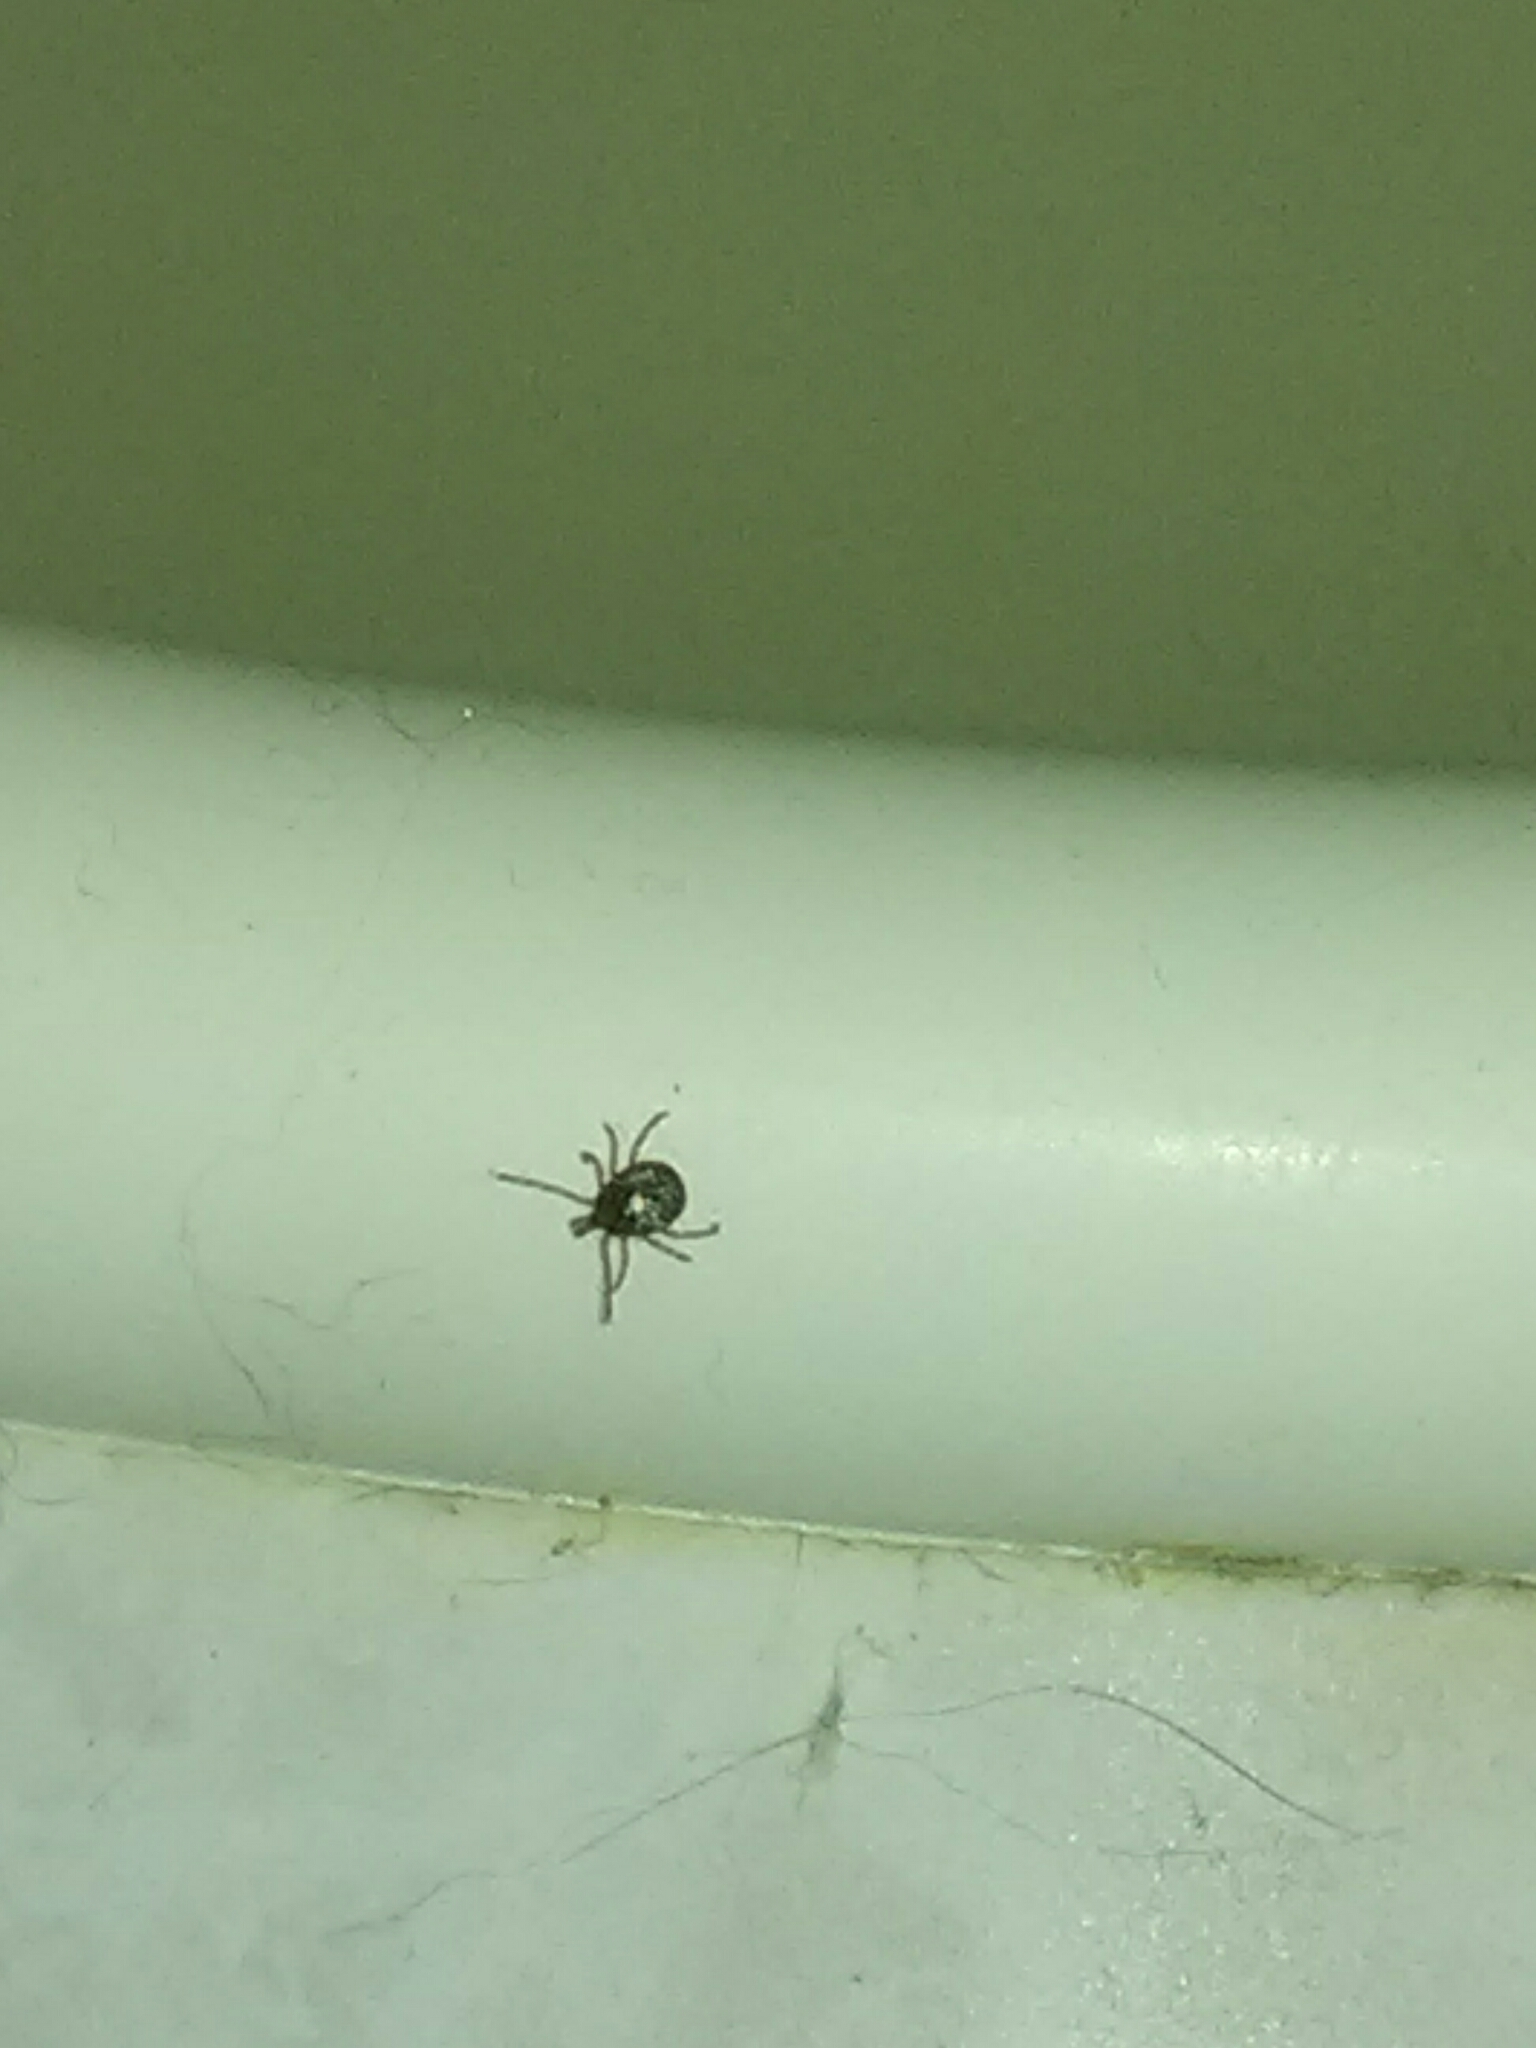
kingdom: Animalia
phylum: Arthropoda
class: Arachnida
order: Ixodida
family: Ixodidae
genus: Amblyomma
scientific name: Amblyomma americanum
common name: Lone star tick
